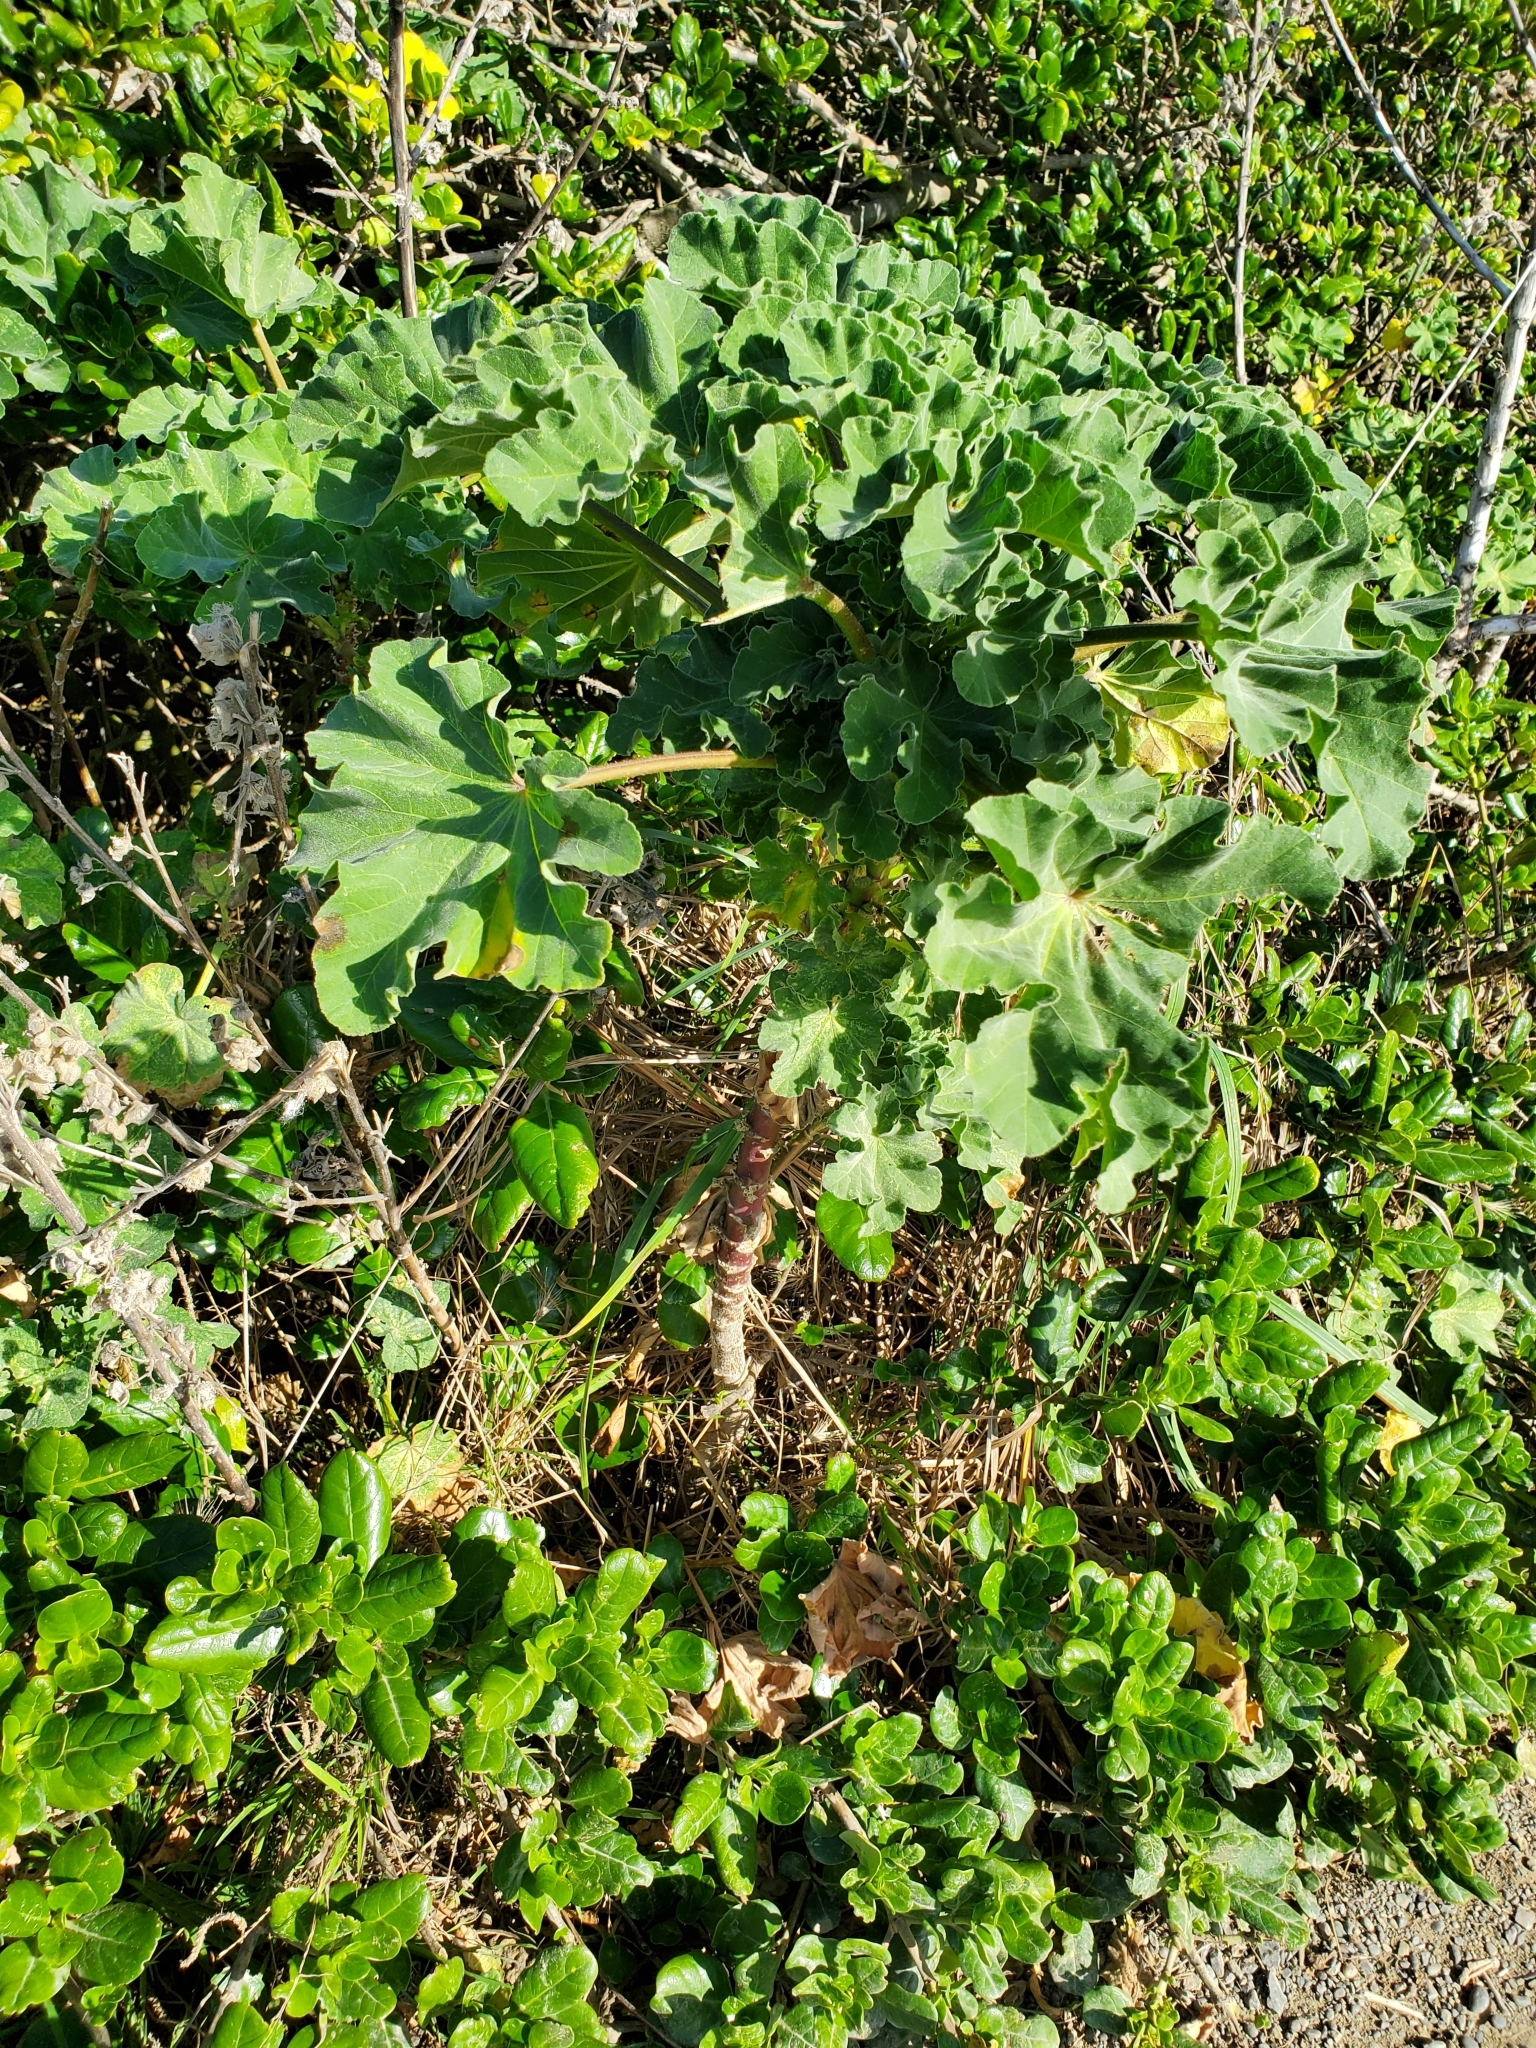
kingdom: Plantae
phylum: Tracheophyta
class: Magnoliopsida
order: Malvales
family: Malvaceae
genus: Malva
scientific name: Malva arborea
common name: Tree mallow
